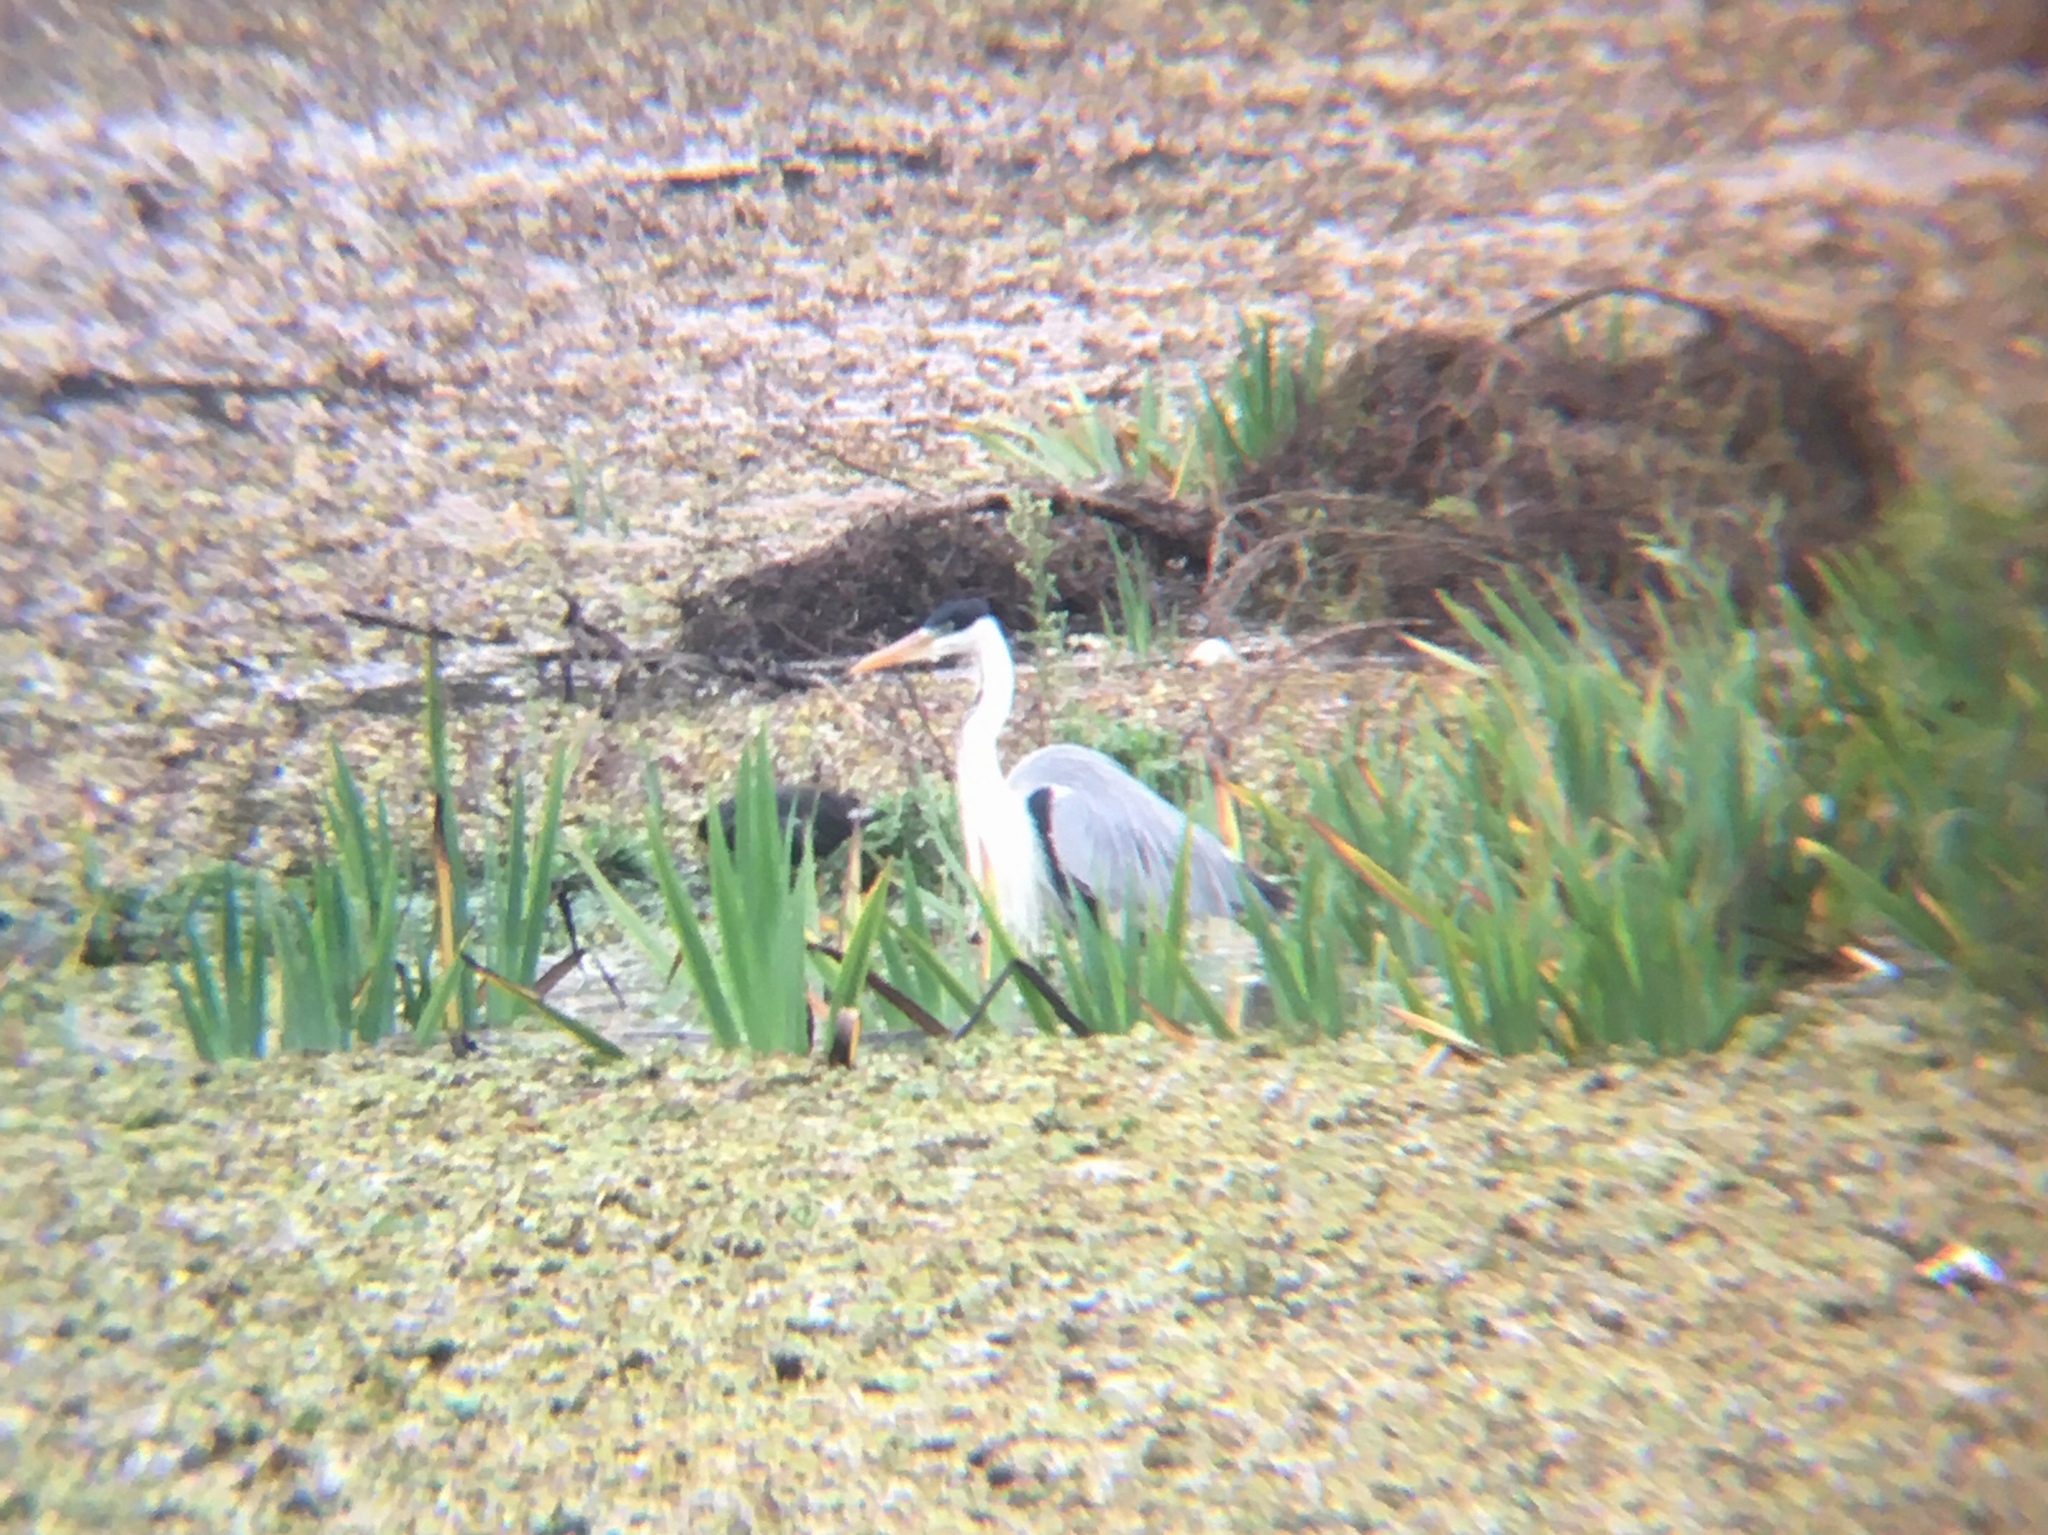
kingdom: Animalia
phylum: Chordata
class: Aves
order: Pelecaniformes
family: Ardeidae
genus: Ardea
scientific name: Ardea cocoi
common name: Cocoi heron
